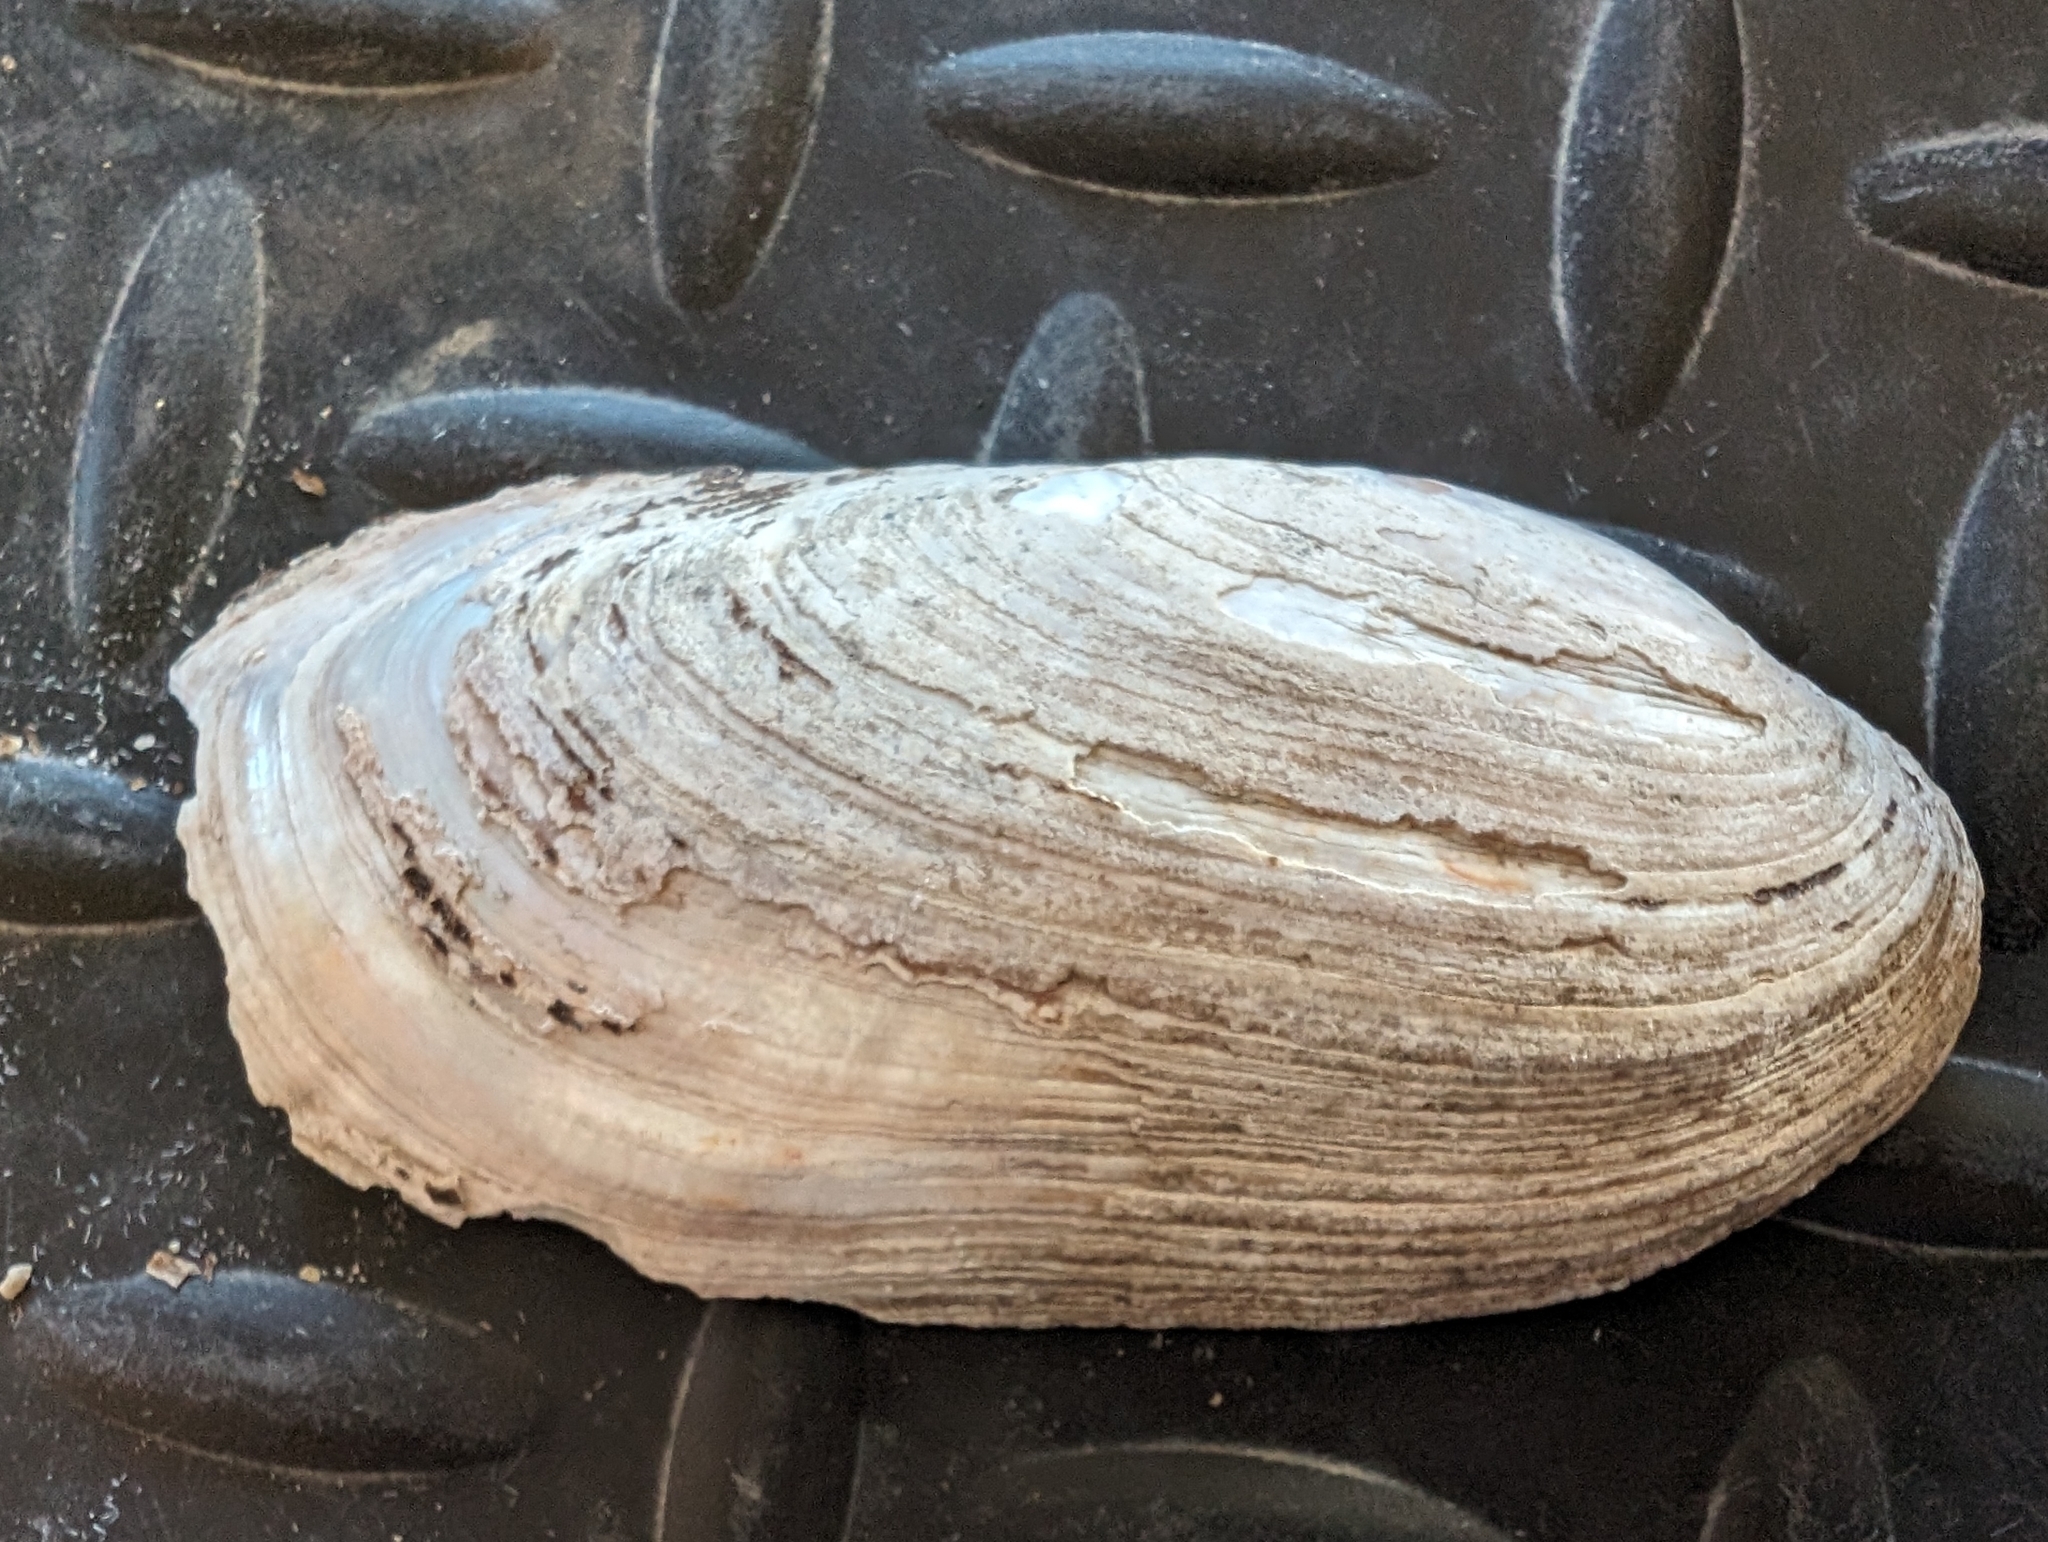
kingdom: Animalia
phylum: Mollusca
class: Bivalvia
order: Unionida
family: Unionidae
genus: Ligumia
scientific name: Ligumia recta
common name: Black sandshell
